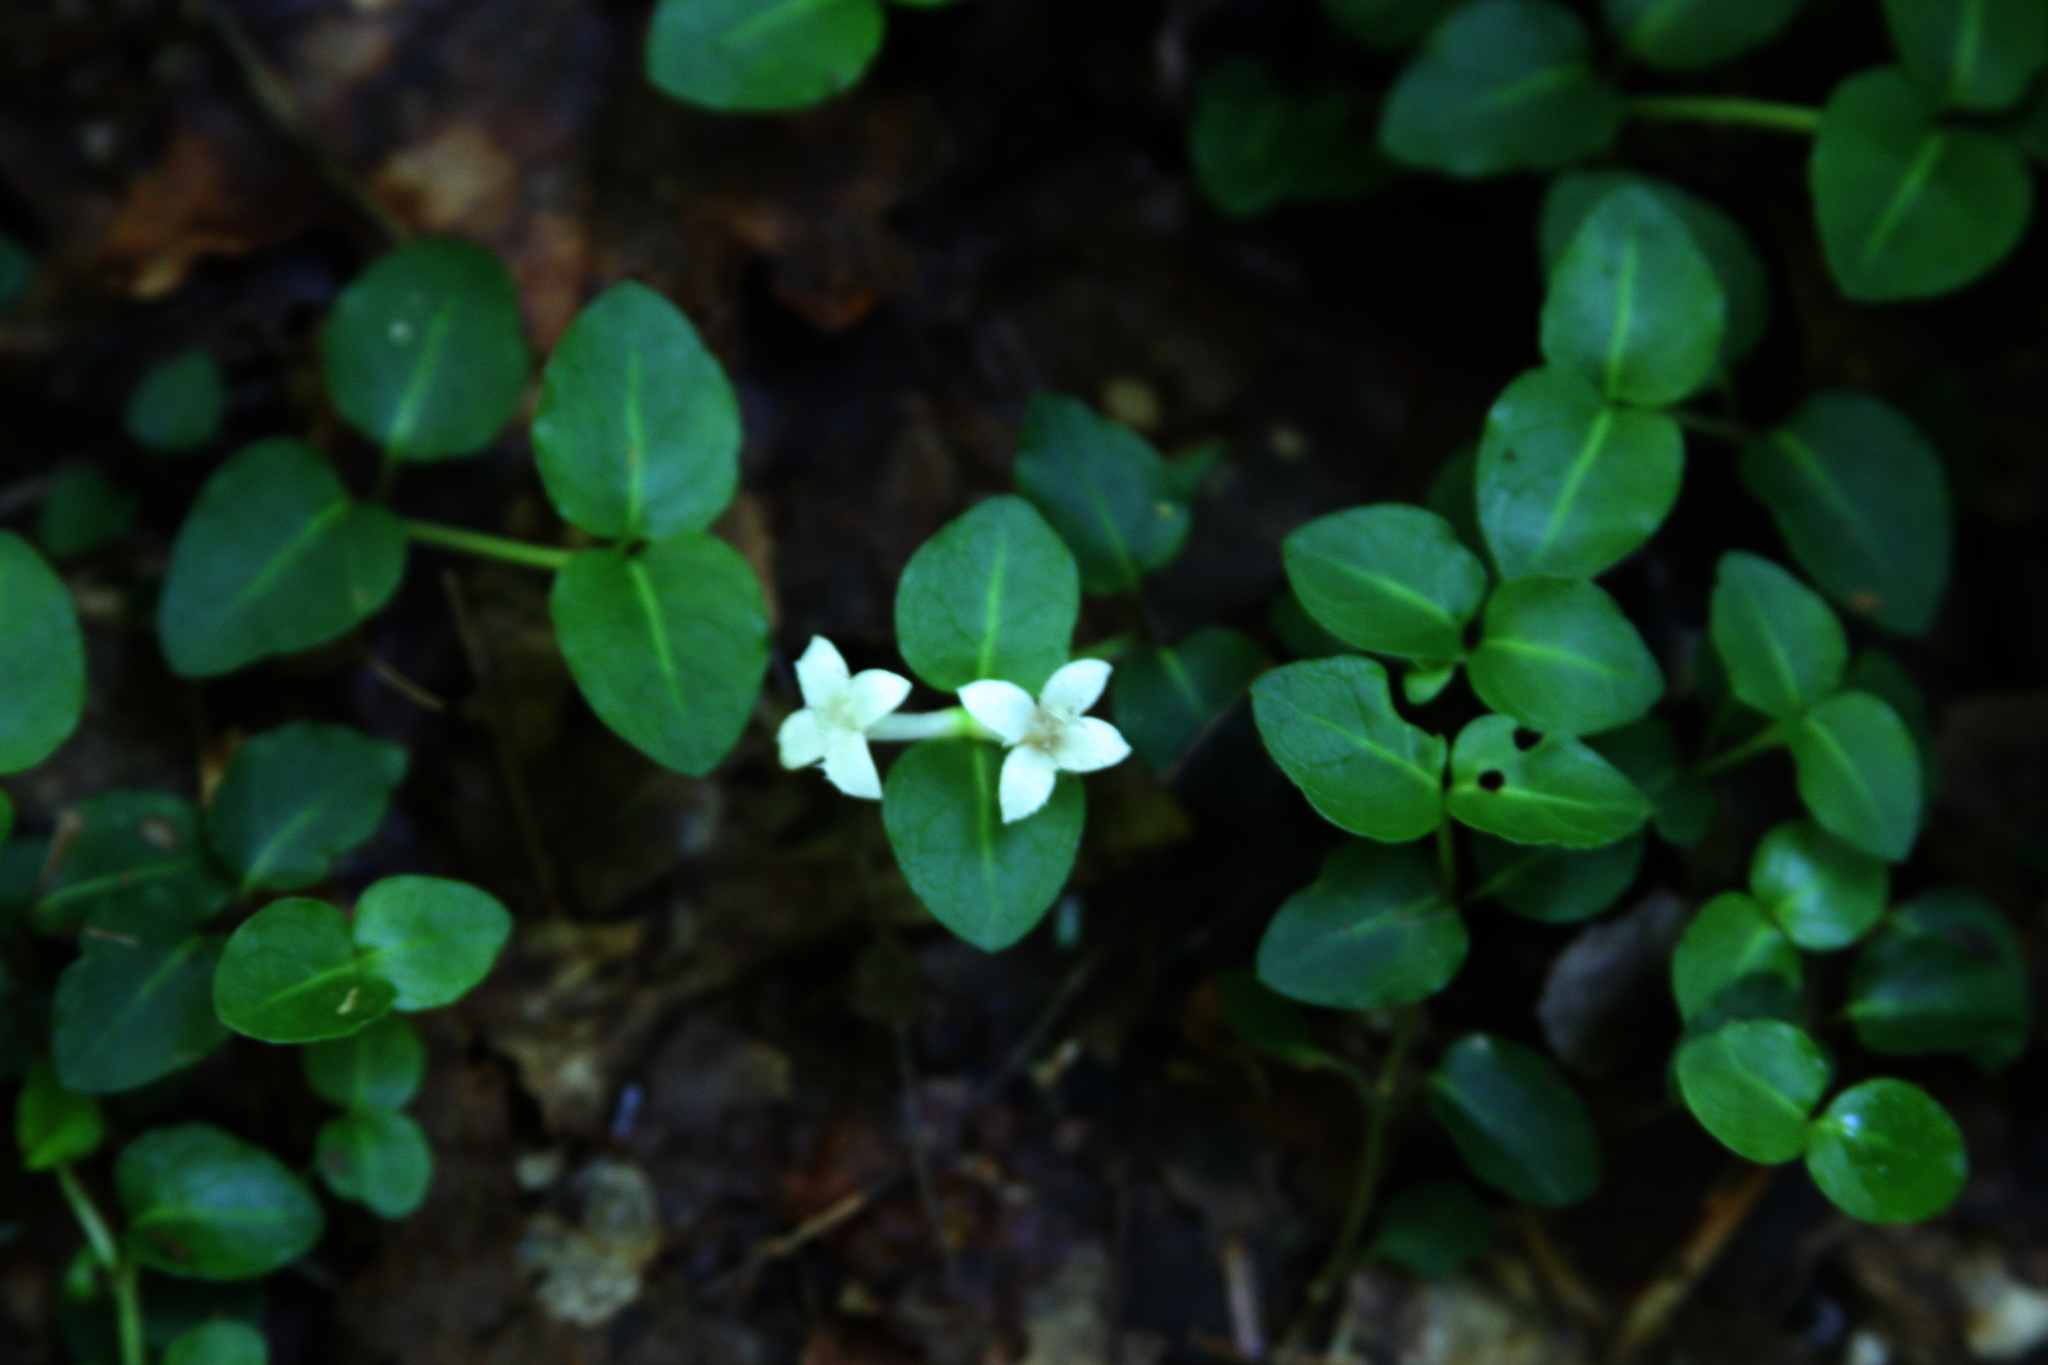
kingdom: Plantae
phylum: Tracheophyta
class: Magnoliopsida
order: Gentianales
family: Rubiaceae
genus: Mitchella
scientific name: Mitchella repens
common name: Partridge-berry
